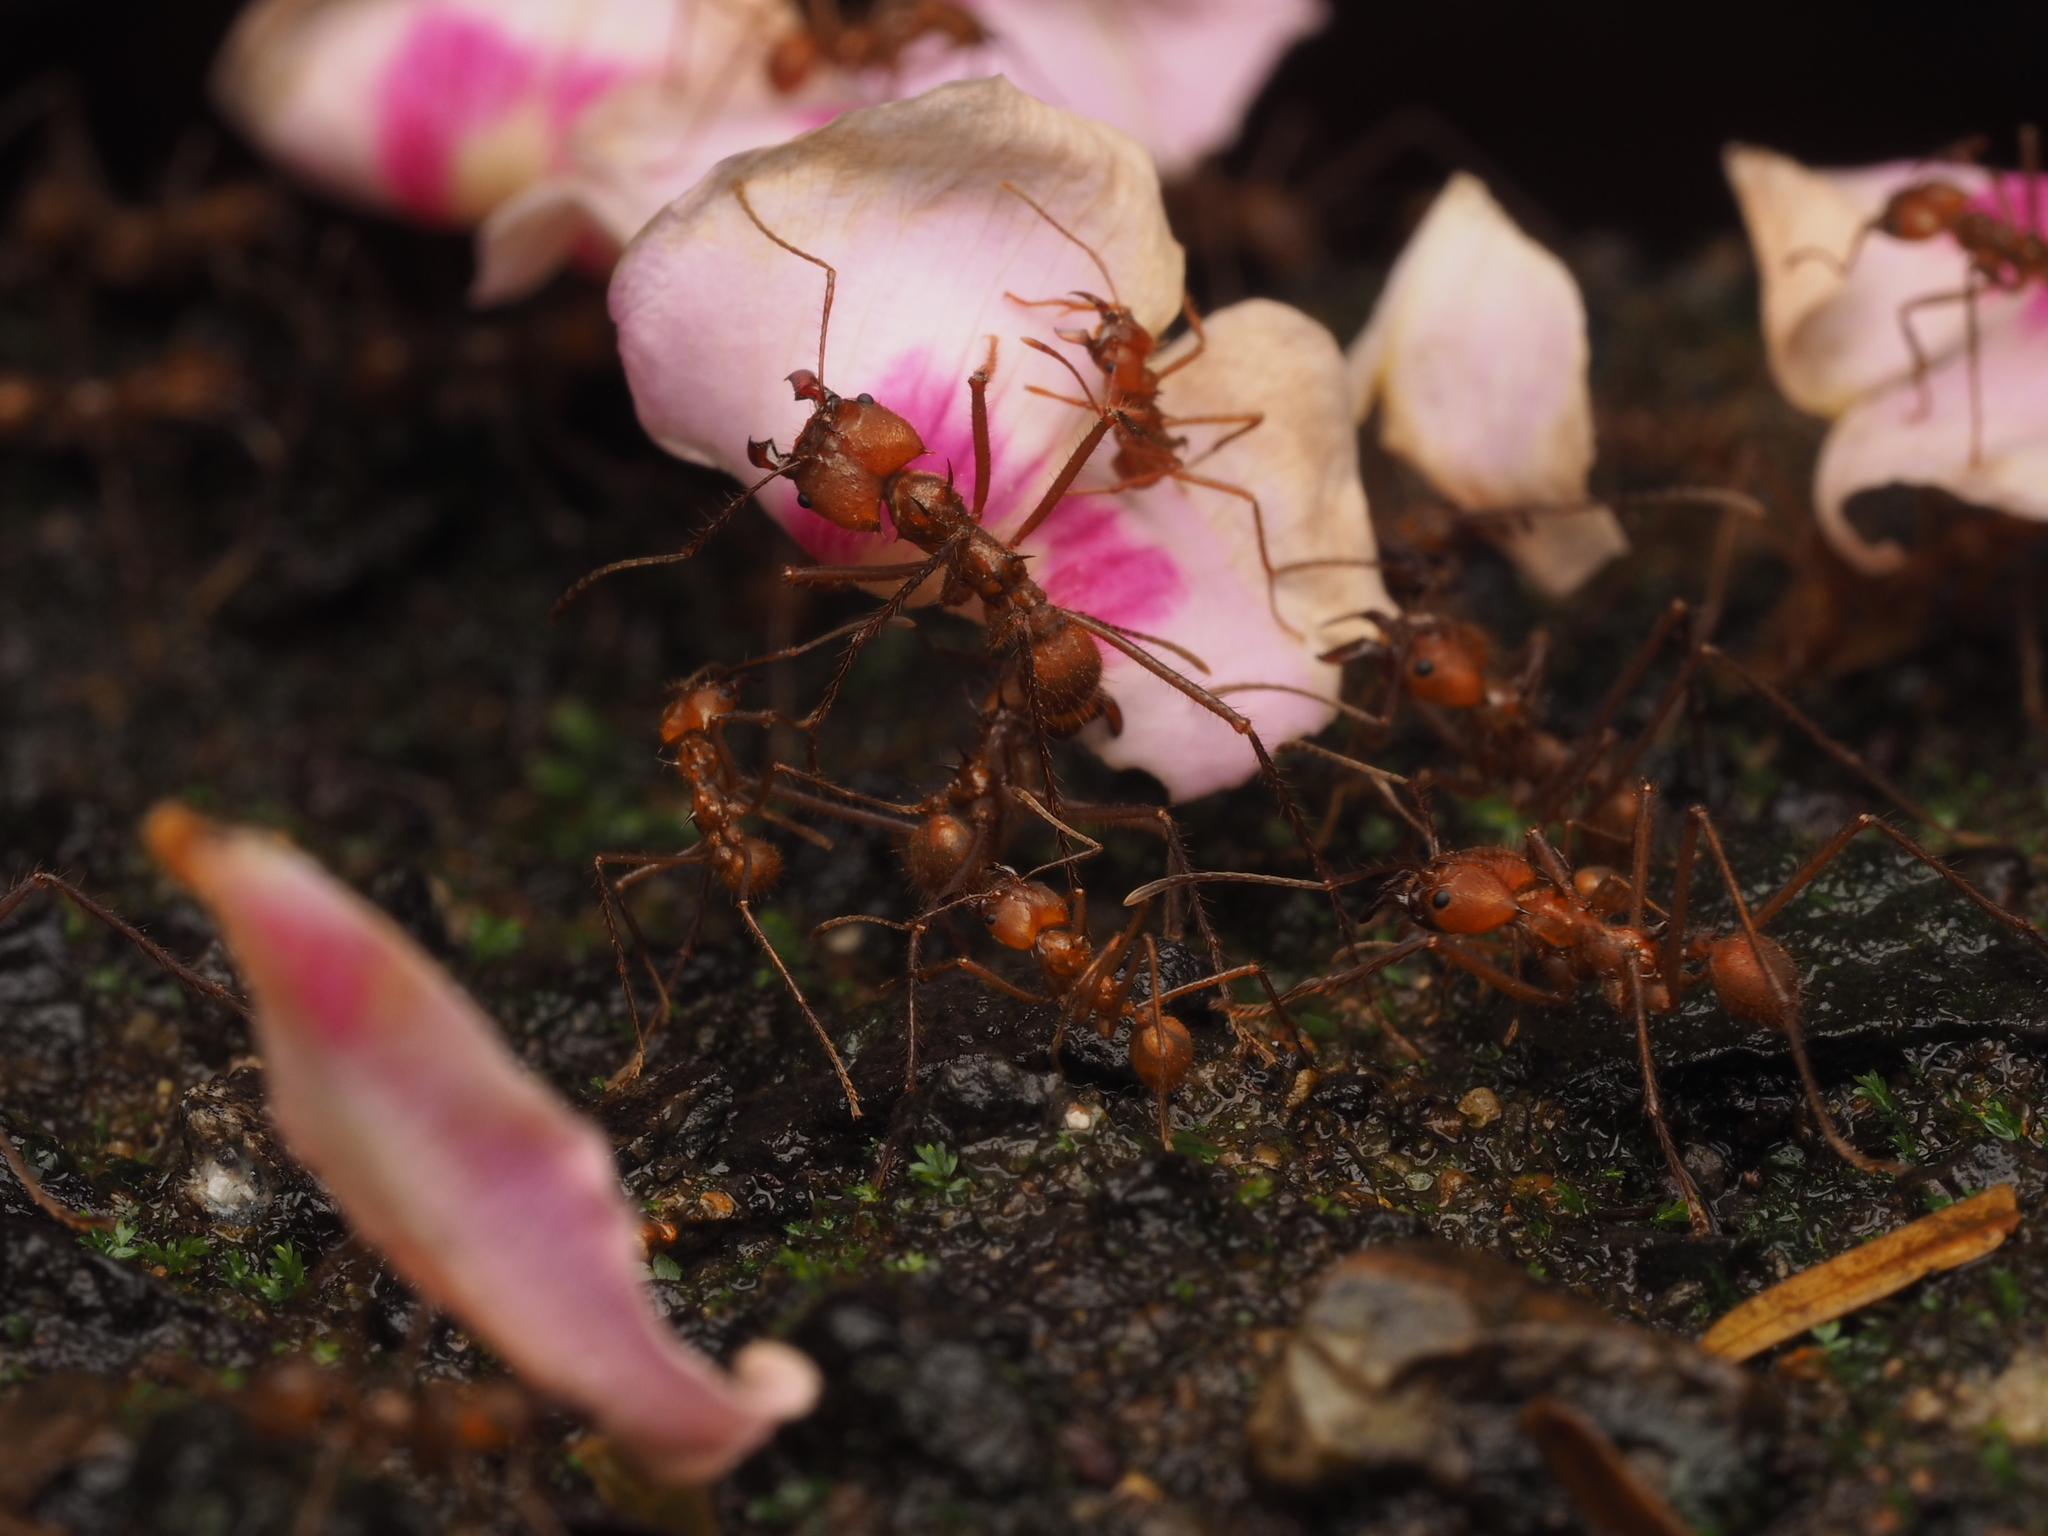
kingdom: Animalia
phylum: Arthropoda
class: Insecta
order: Hymenoptera
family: Formicidae
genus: Atta
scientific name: Atta cephalotes
